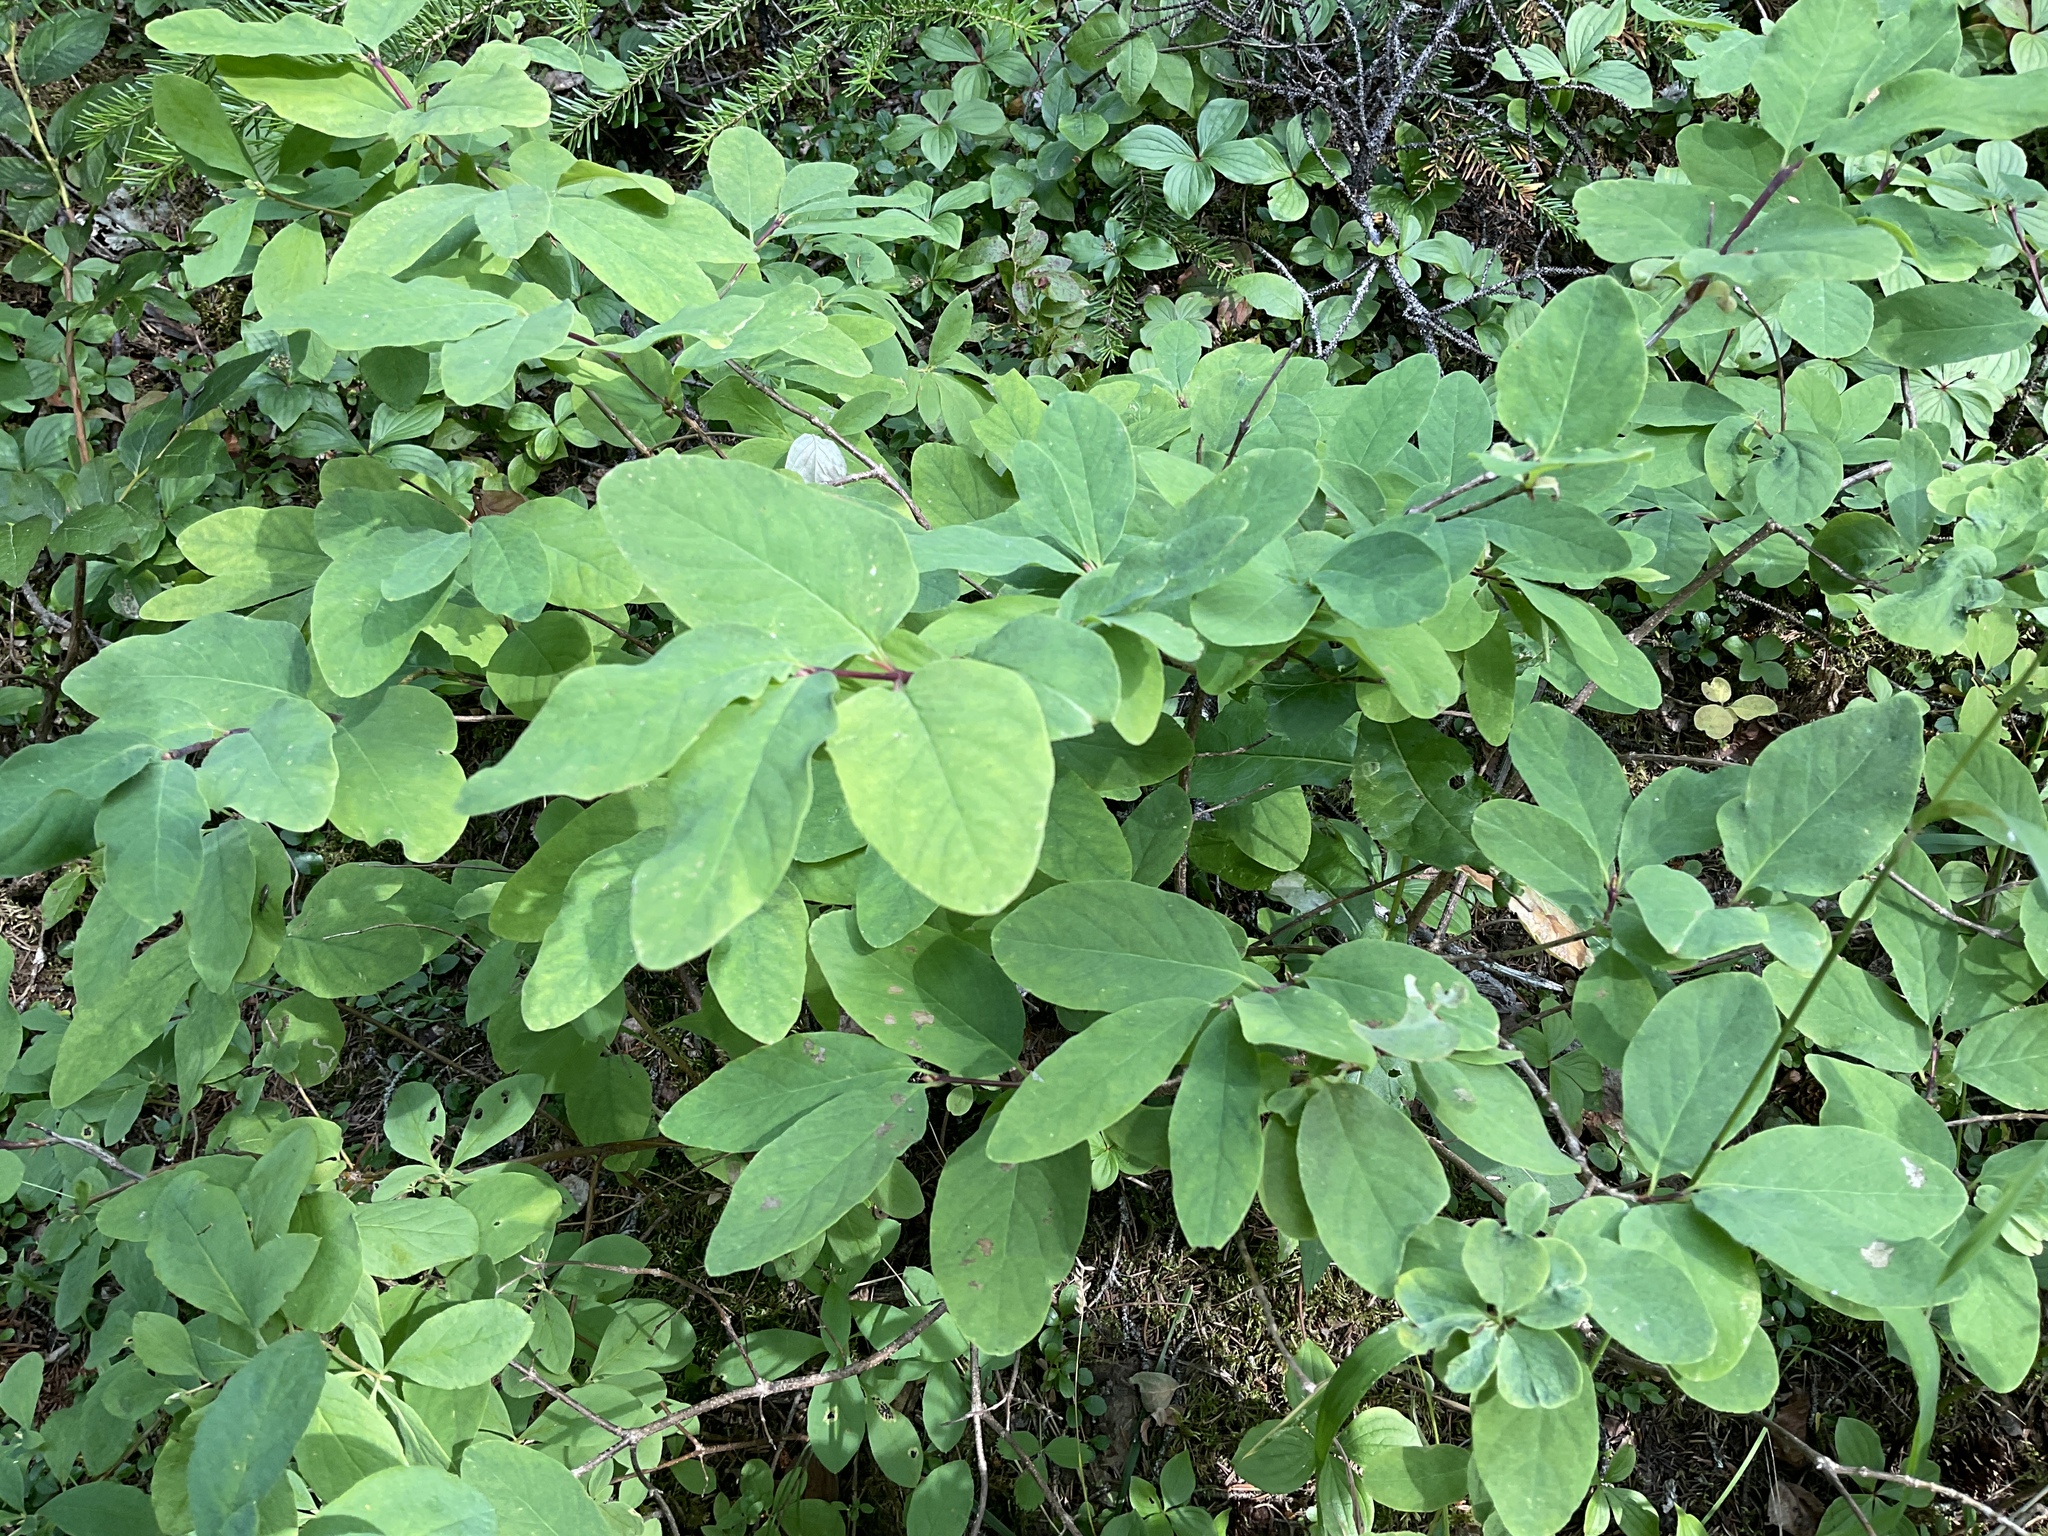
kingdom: Plantae
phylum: Tracheophyta
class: Magnoliopsida
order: Dipsacales
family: Caprifoliaceae
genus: Lonicera
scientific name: Lonicera utahensis
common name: Utah honeysuckle
